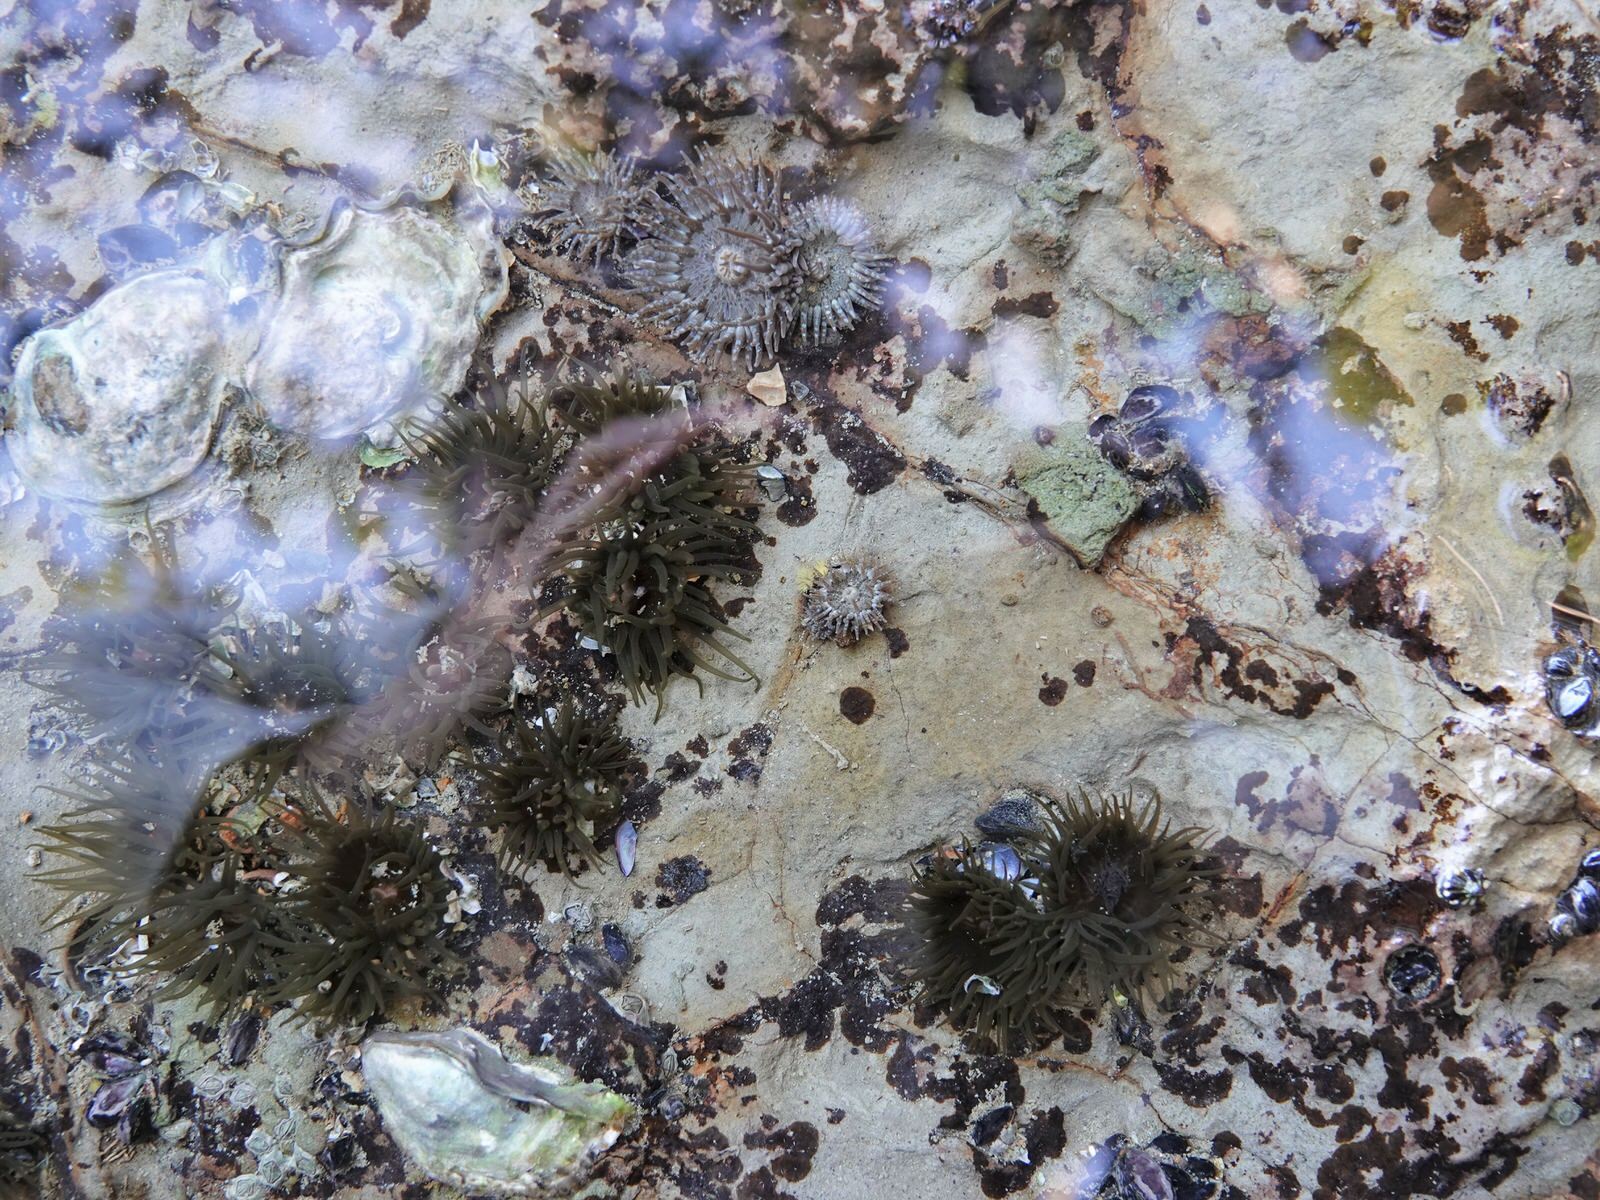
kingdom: Animalia
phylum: Cnidaria
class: Anthozoa
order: Actiniaria
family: Diadumenidae
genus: Diadumene
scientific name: Diadumene lineata
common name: Orange-striped anemone
